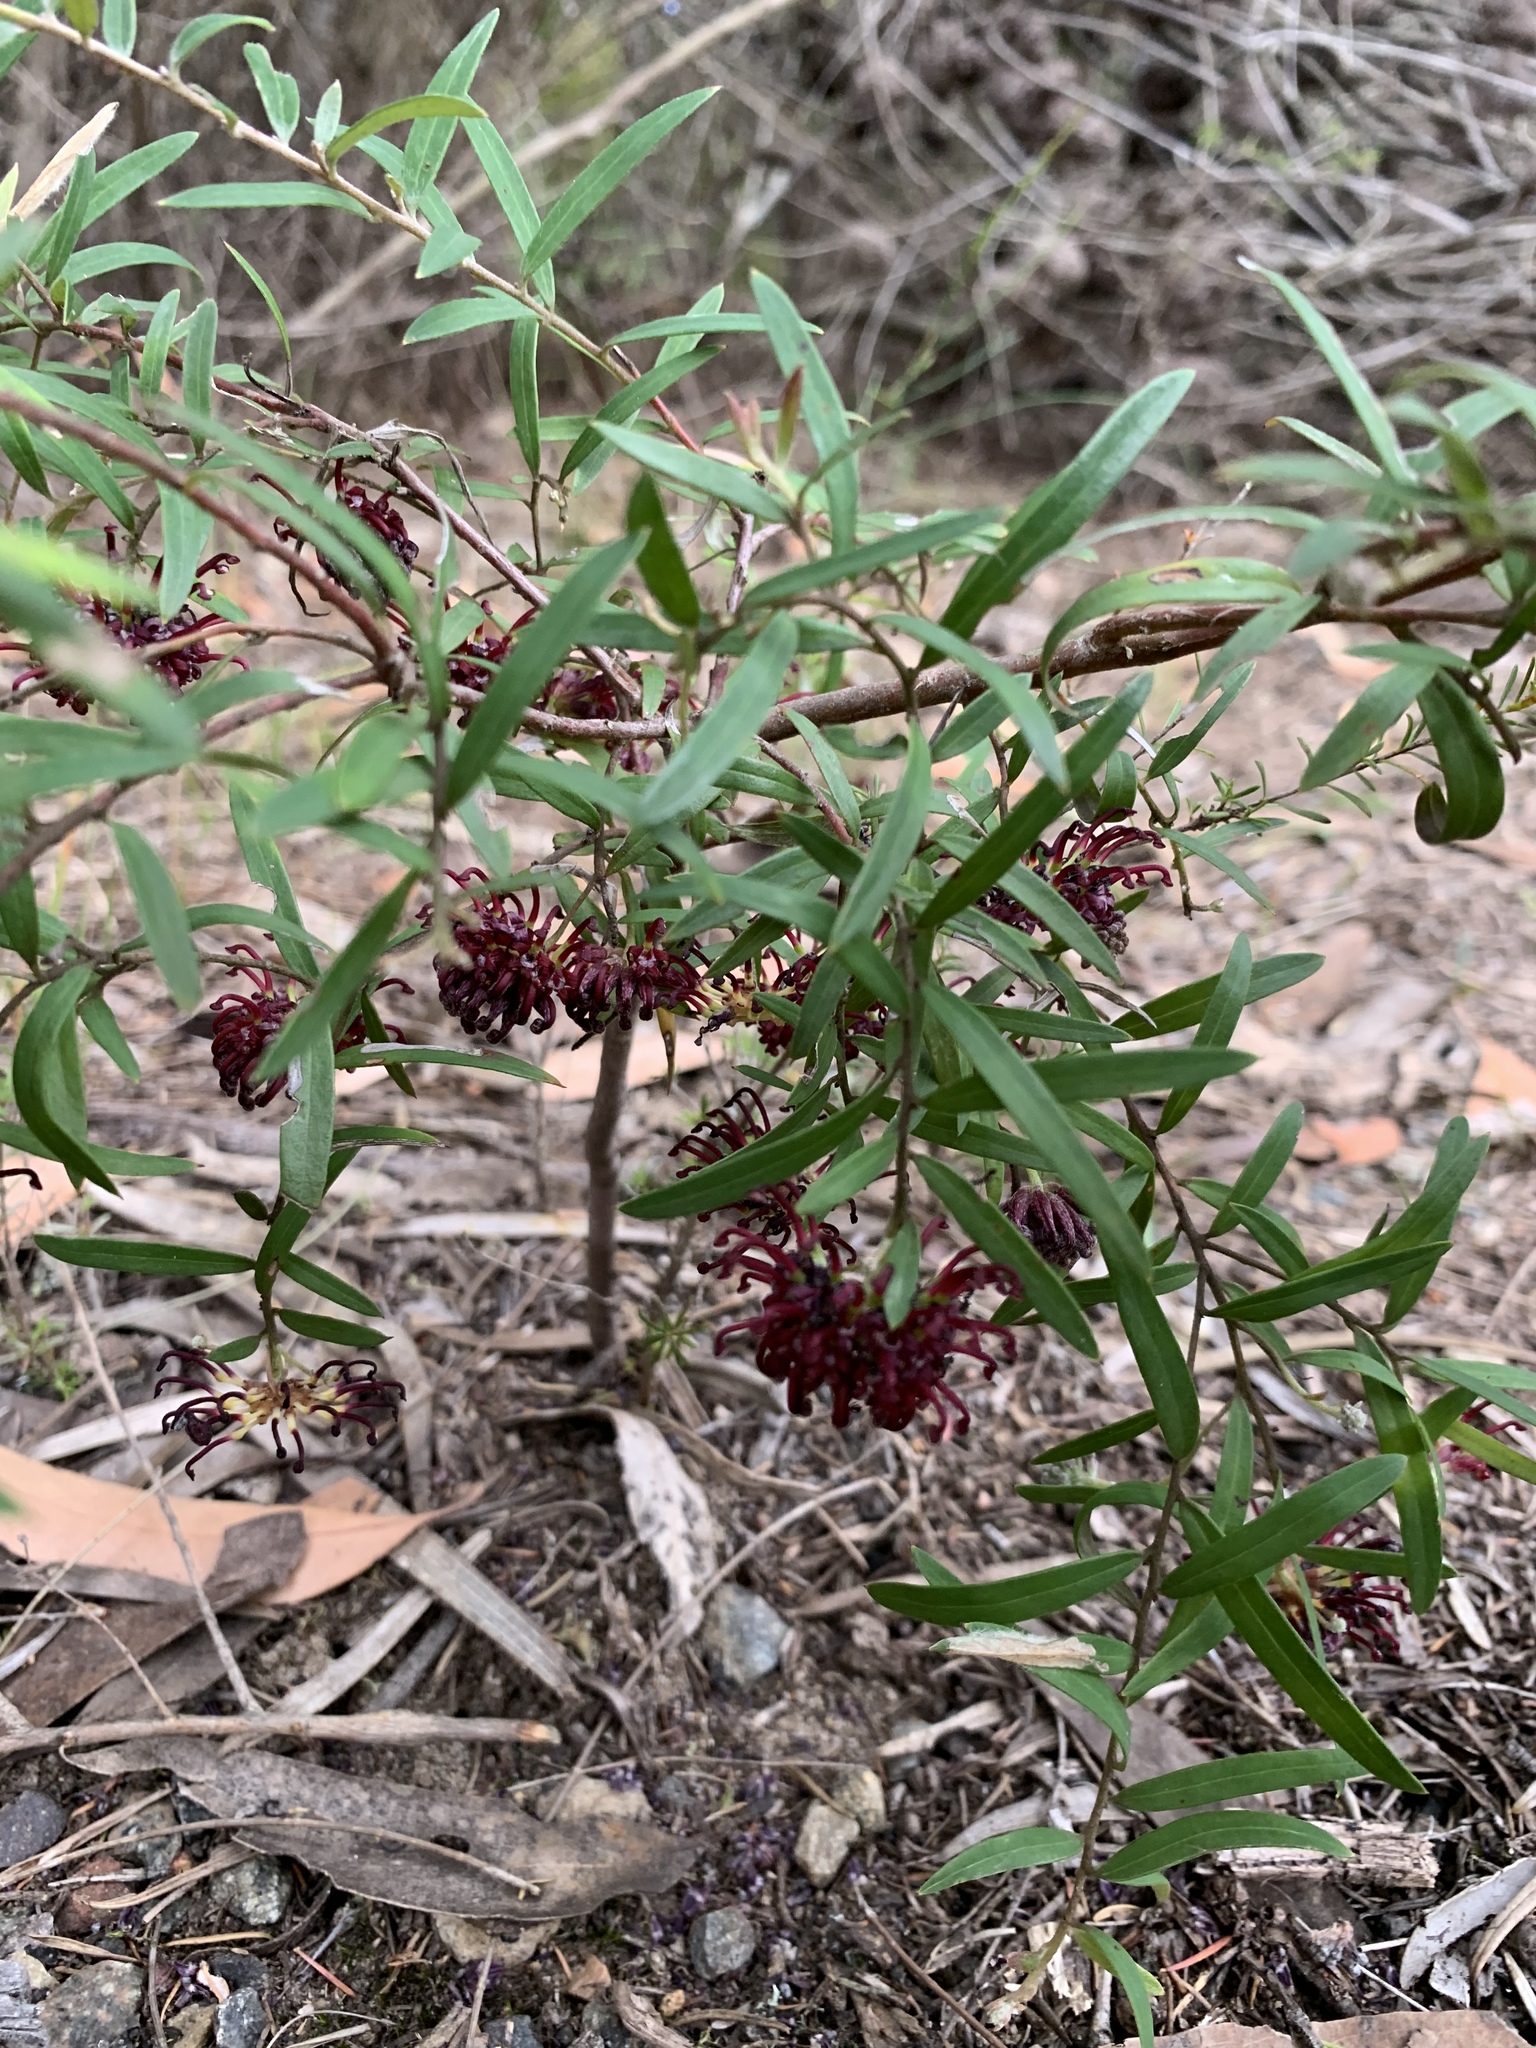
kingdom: Plantae
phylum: Tracheophyta
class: Magnoliopsida
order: Proteales
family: Proteaceae
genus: Grevillea
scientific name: Grevillea diffusa
